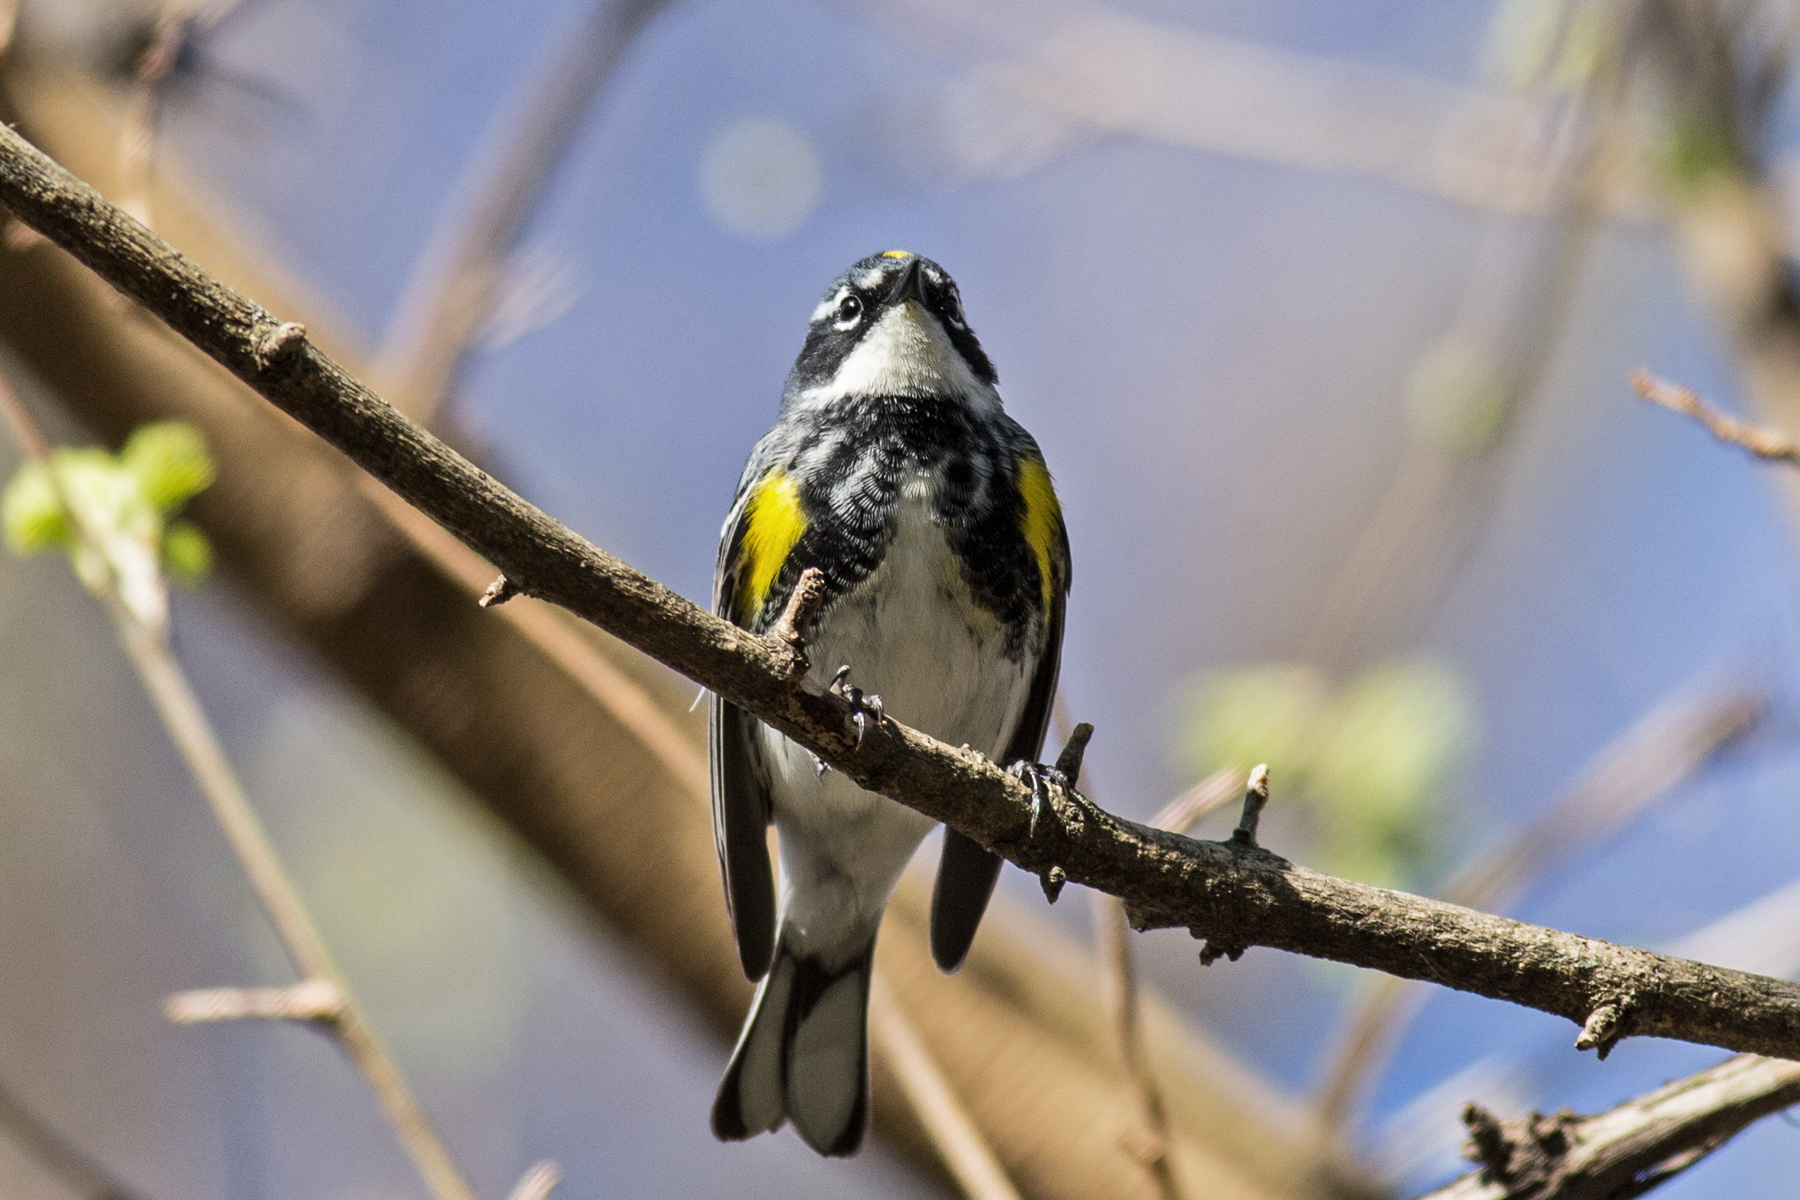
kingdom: Animalia
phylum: Chordata
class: Aves
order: Passeriformes
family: Parulidae
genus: Setophaga
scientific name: Setophaga coronata
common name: Myrtle warbler
